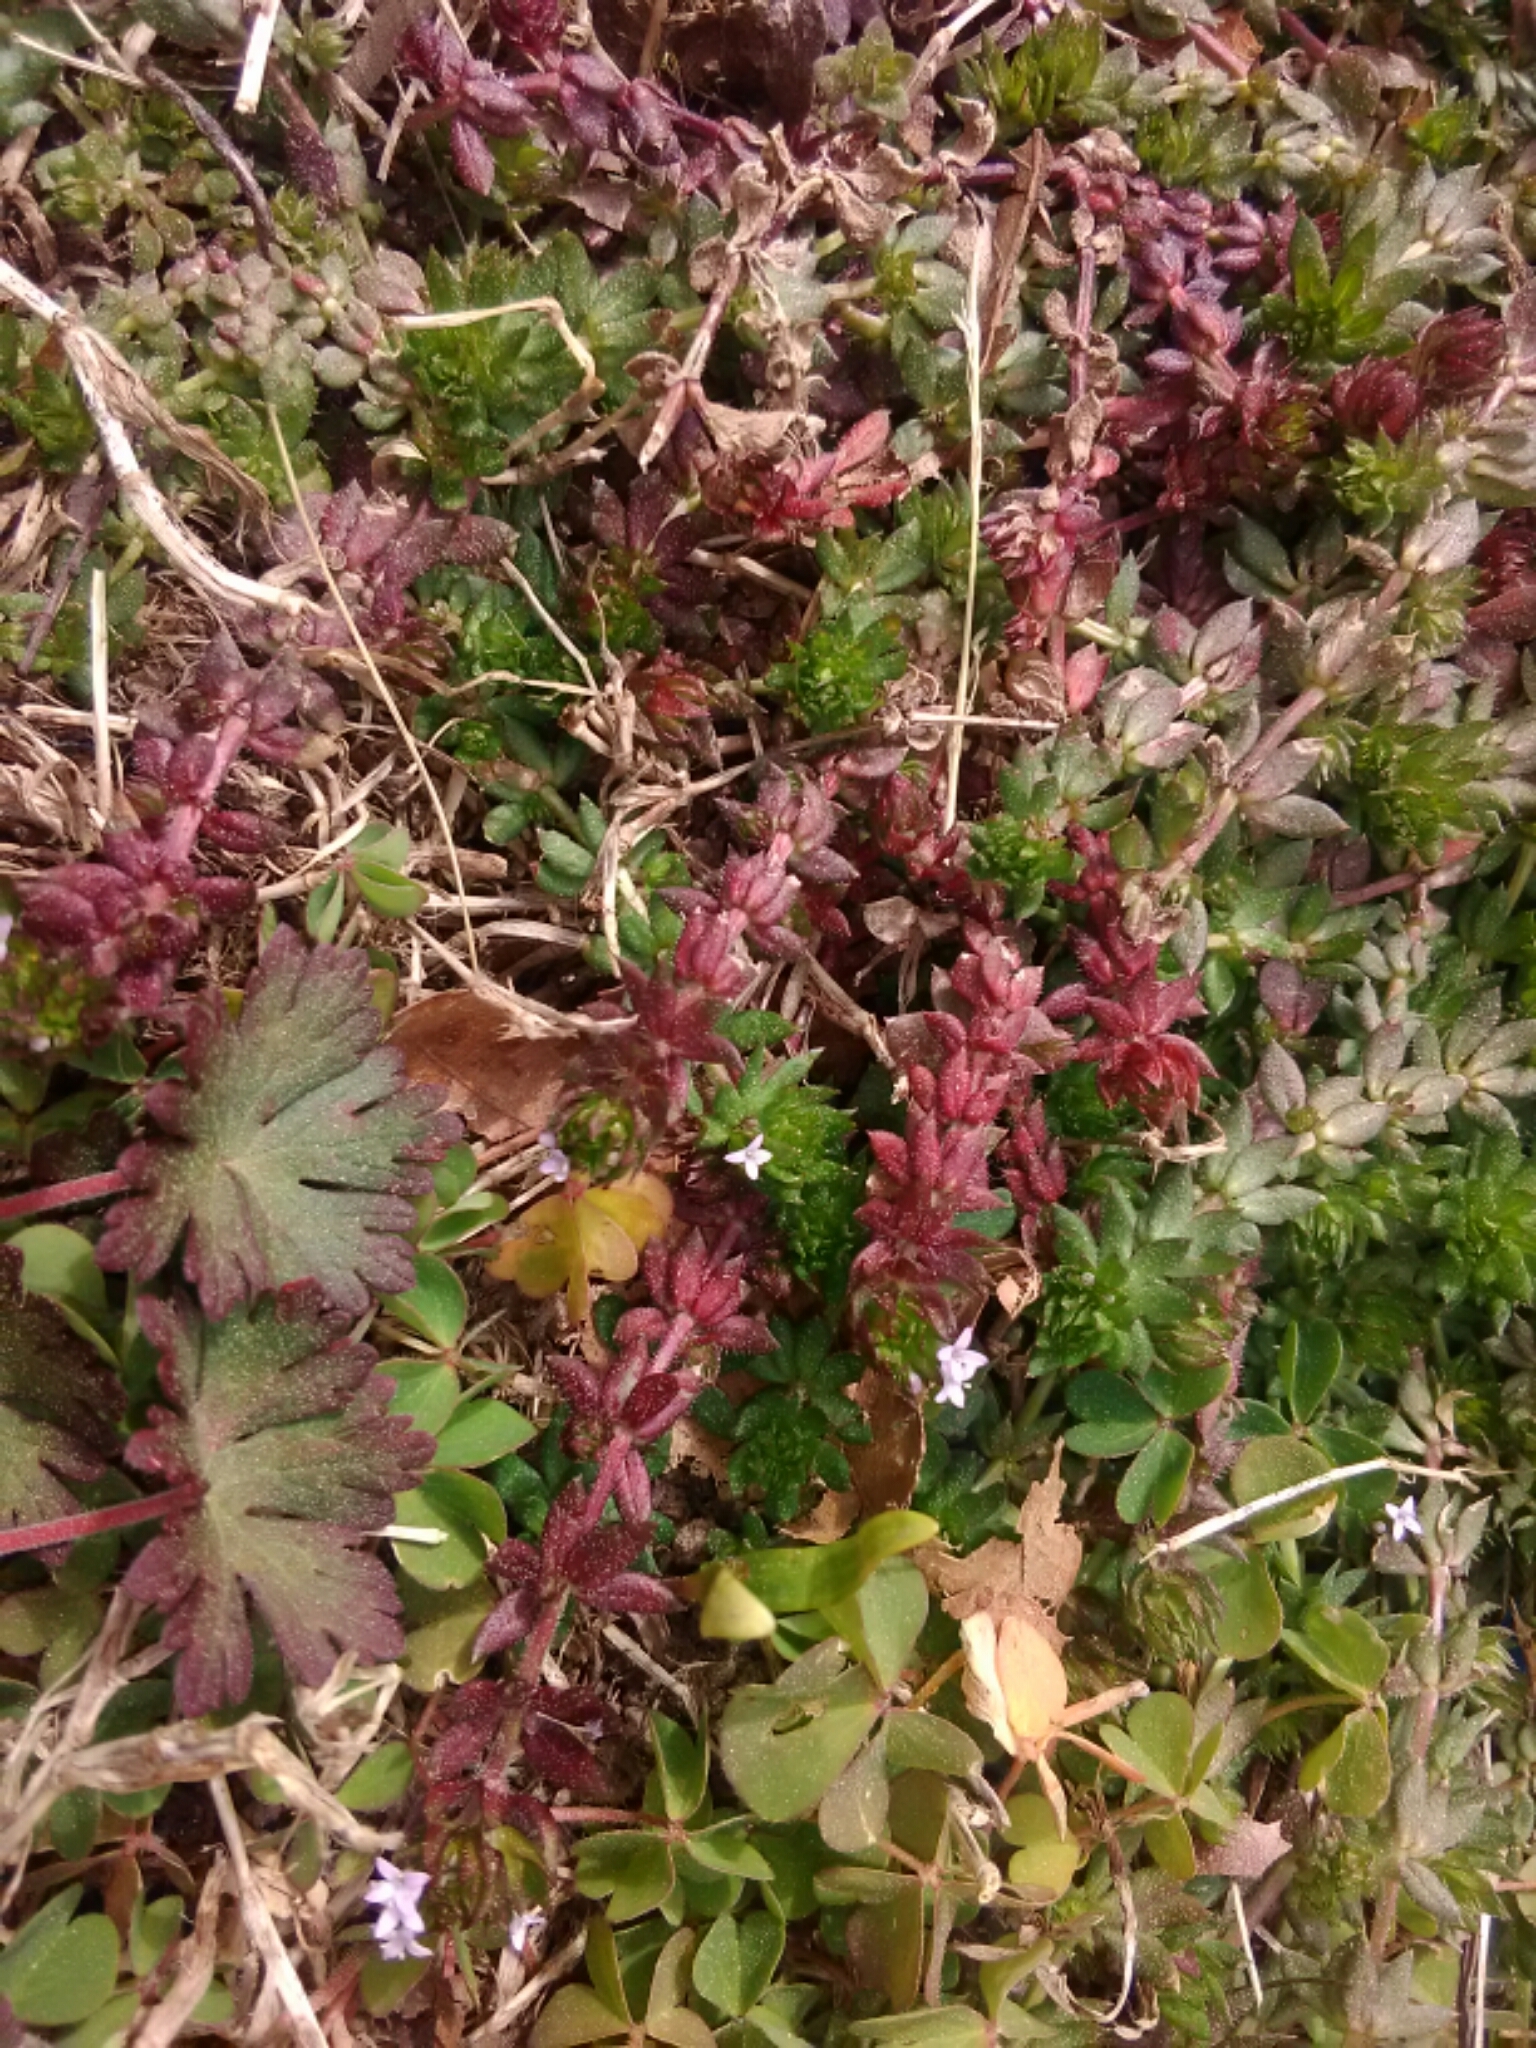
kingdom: Plantae
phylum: Tracheophyta
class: Magnoliopsida
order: Gentianales
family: Rubiaceae
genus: Sherardia
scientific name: Sherardia arvensis
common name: Field madder
